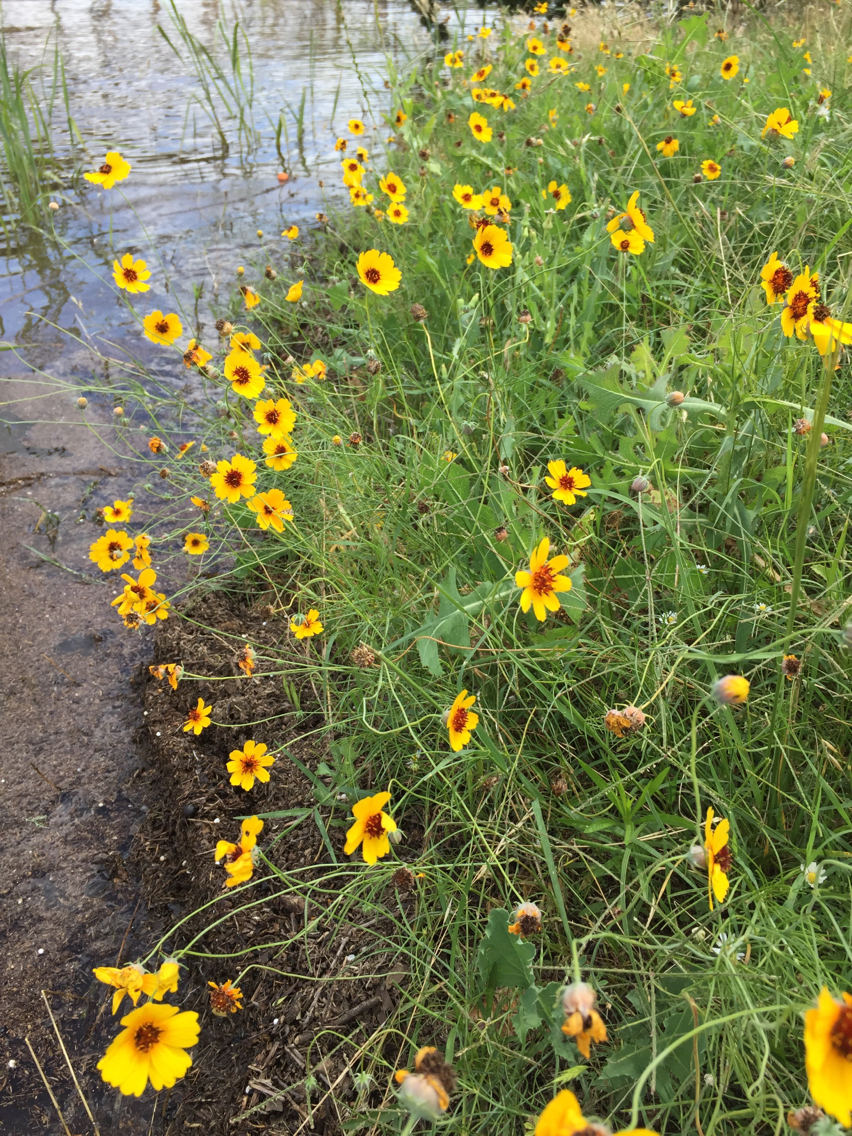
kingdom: Plantae
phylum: Tracheophyta
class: Magnoliopsida
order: Asterales
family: Asteraceae
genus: Thelesperma
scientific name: Thelesperma filifolium
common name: Stiff greenthread
